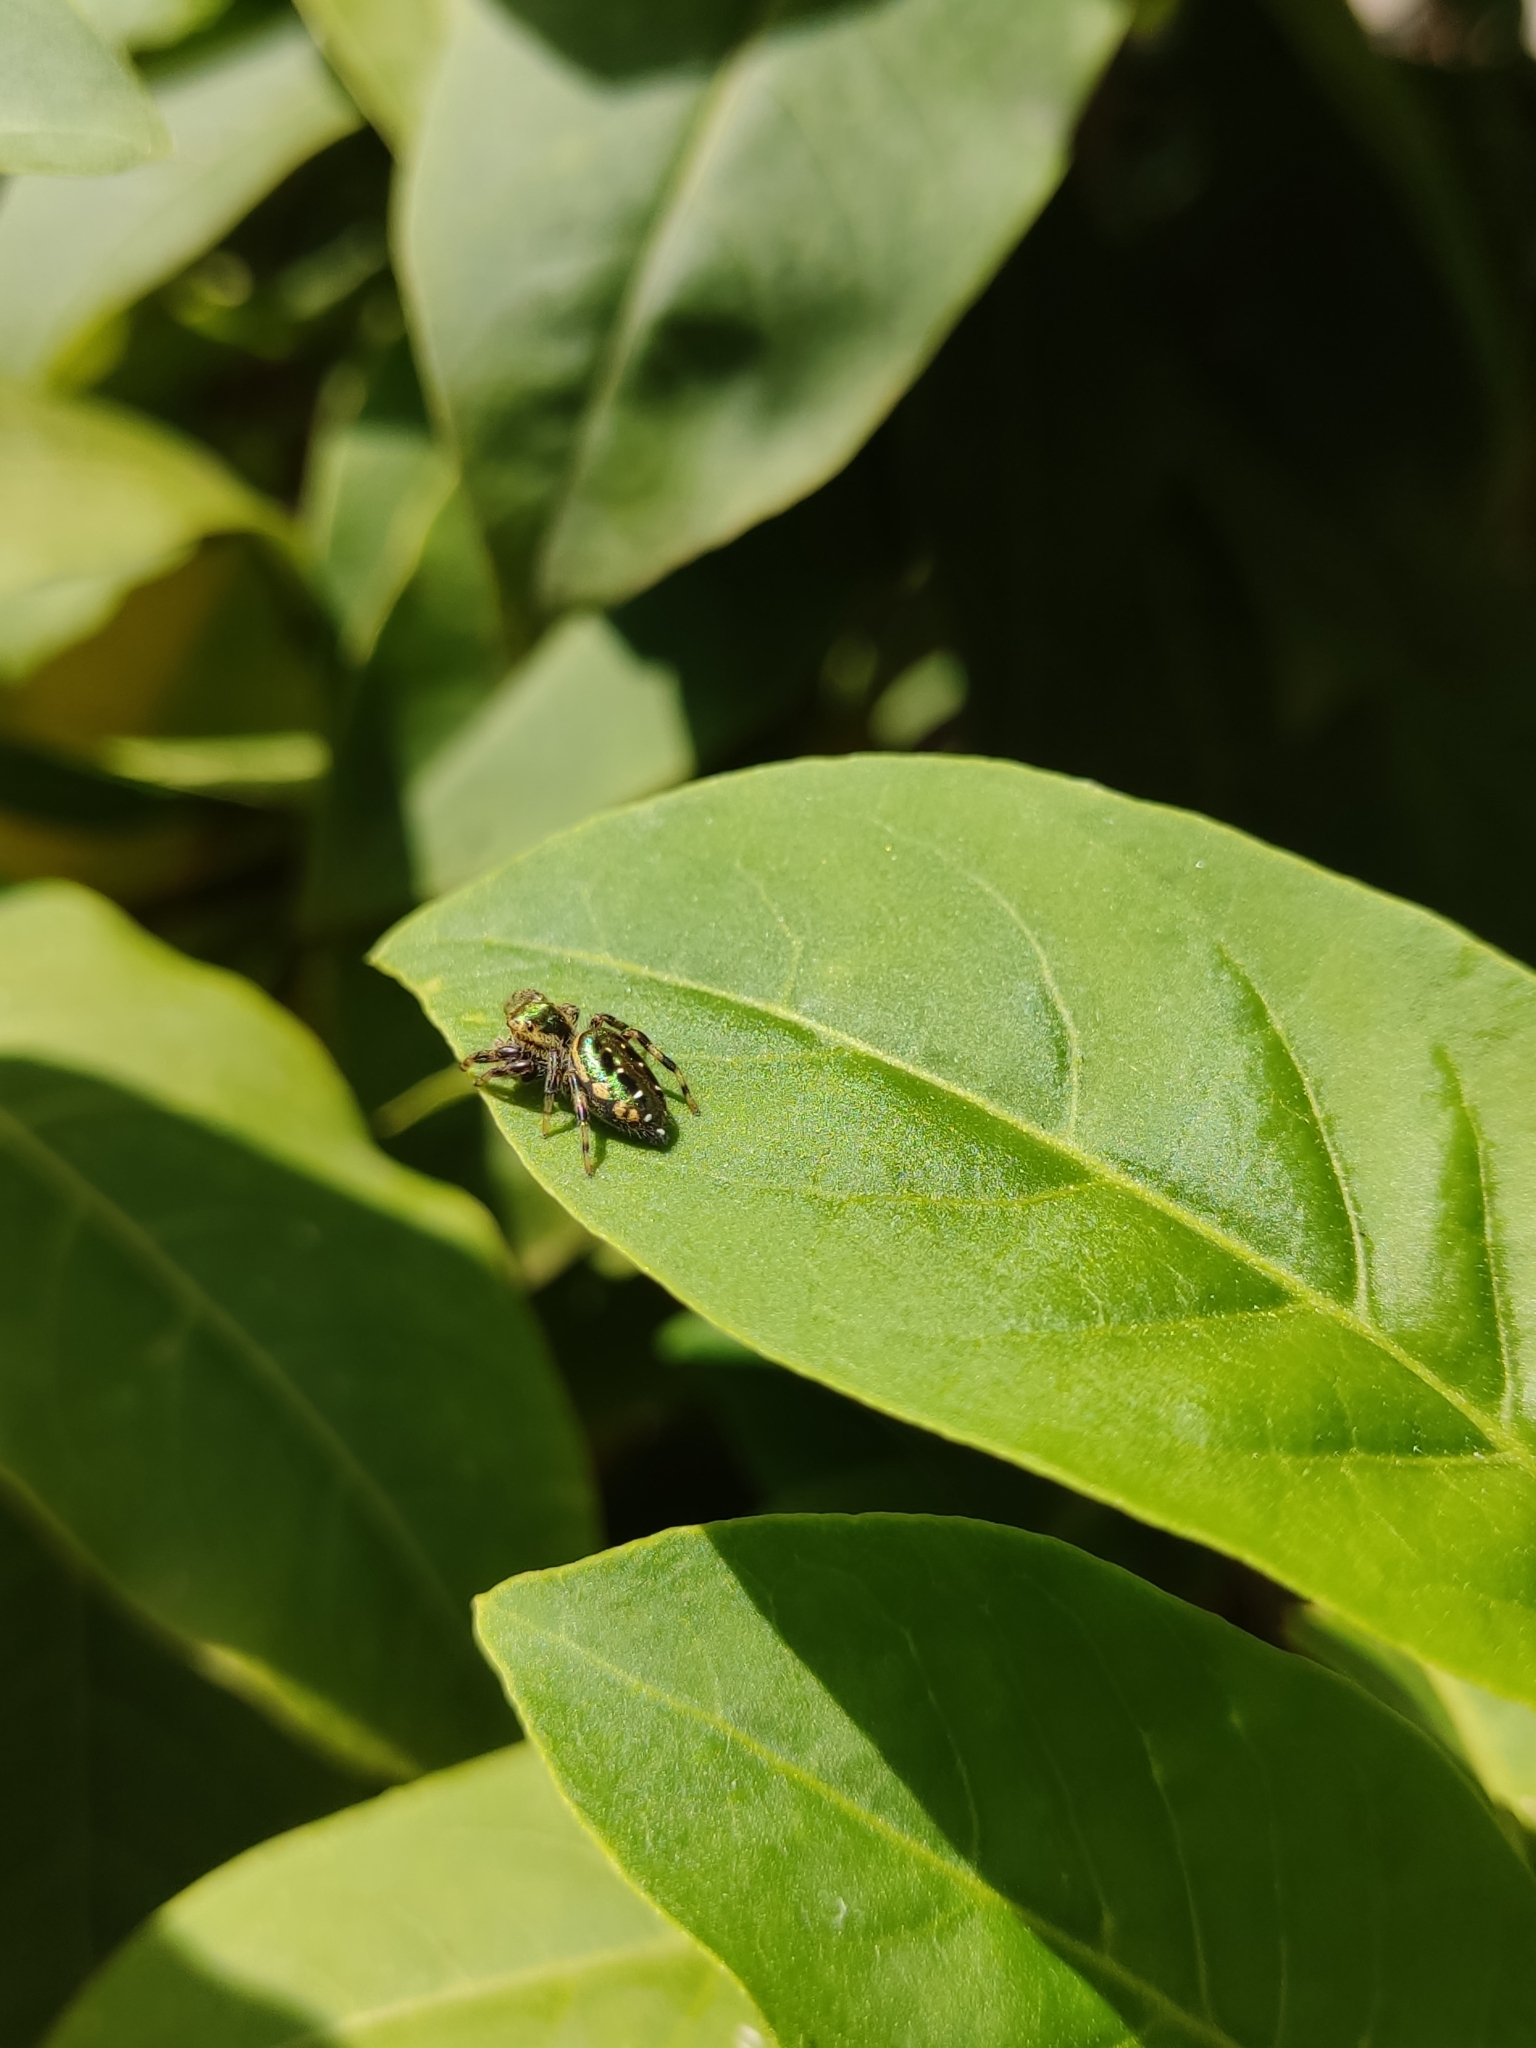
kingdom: Animalia
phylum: Arthropoda
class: Arachnida
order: Araneae
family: Salticidae
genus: Paraphidippus
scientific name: Paraphidippus aurantius
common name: Jumping spiders
